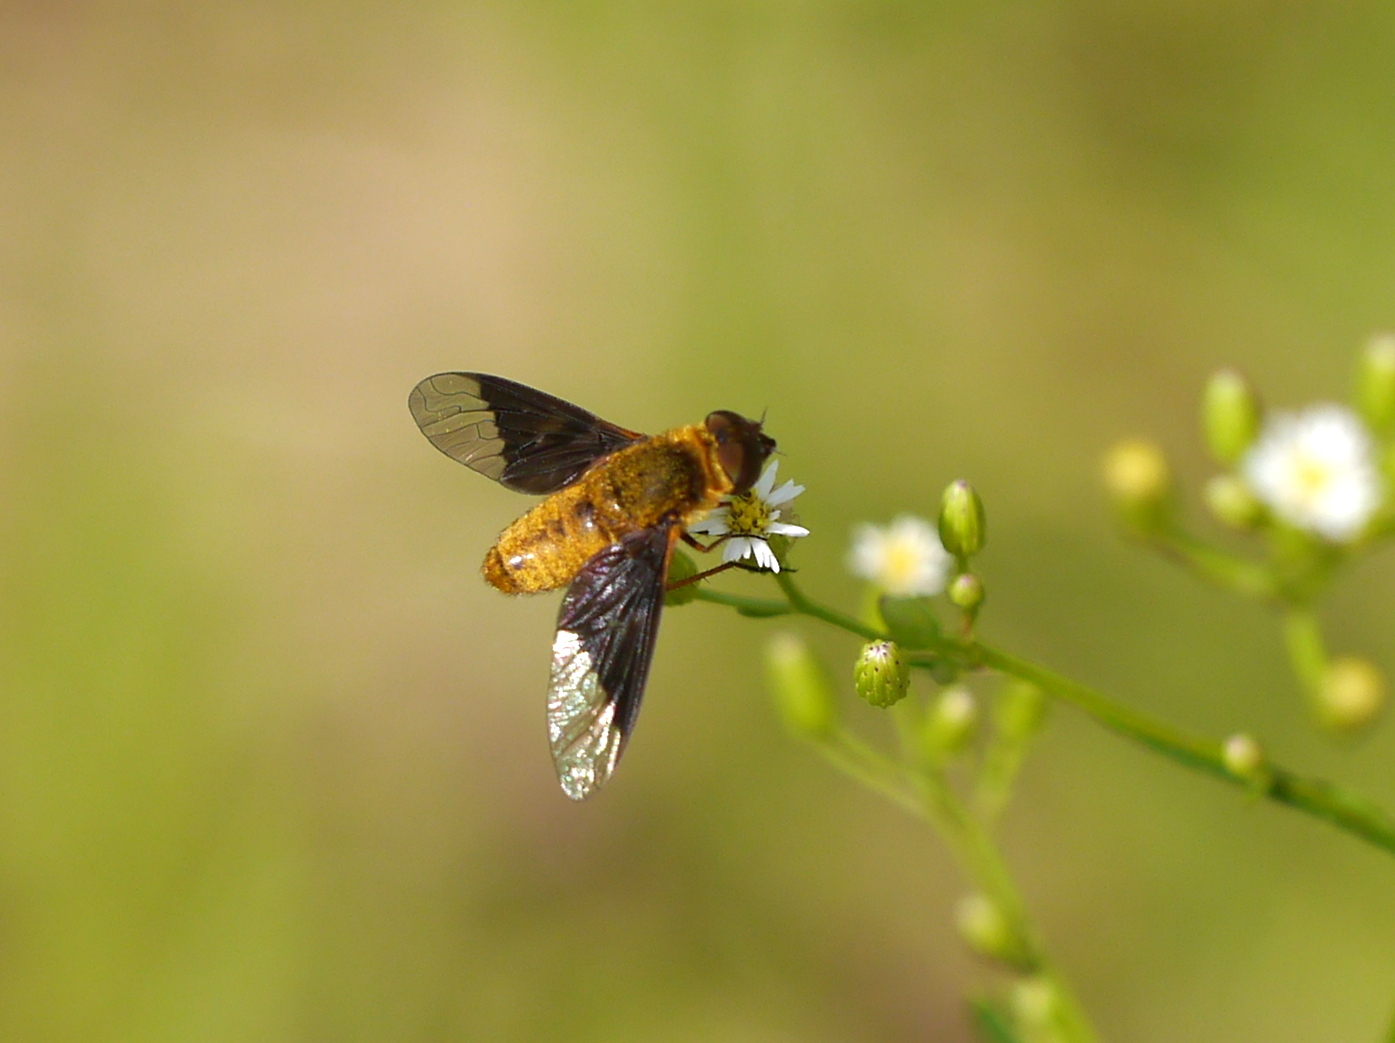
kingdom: Animalia
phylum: Arthropoda
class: Insecta
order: Diptera
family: Bombyliidae
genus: Chrysanthrax
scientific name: Chrysanthrax cypris
